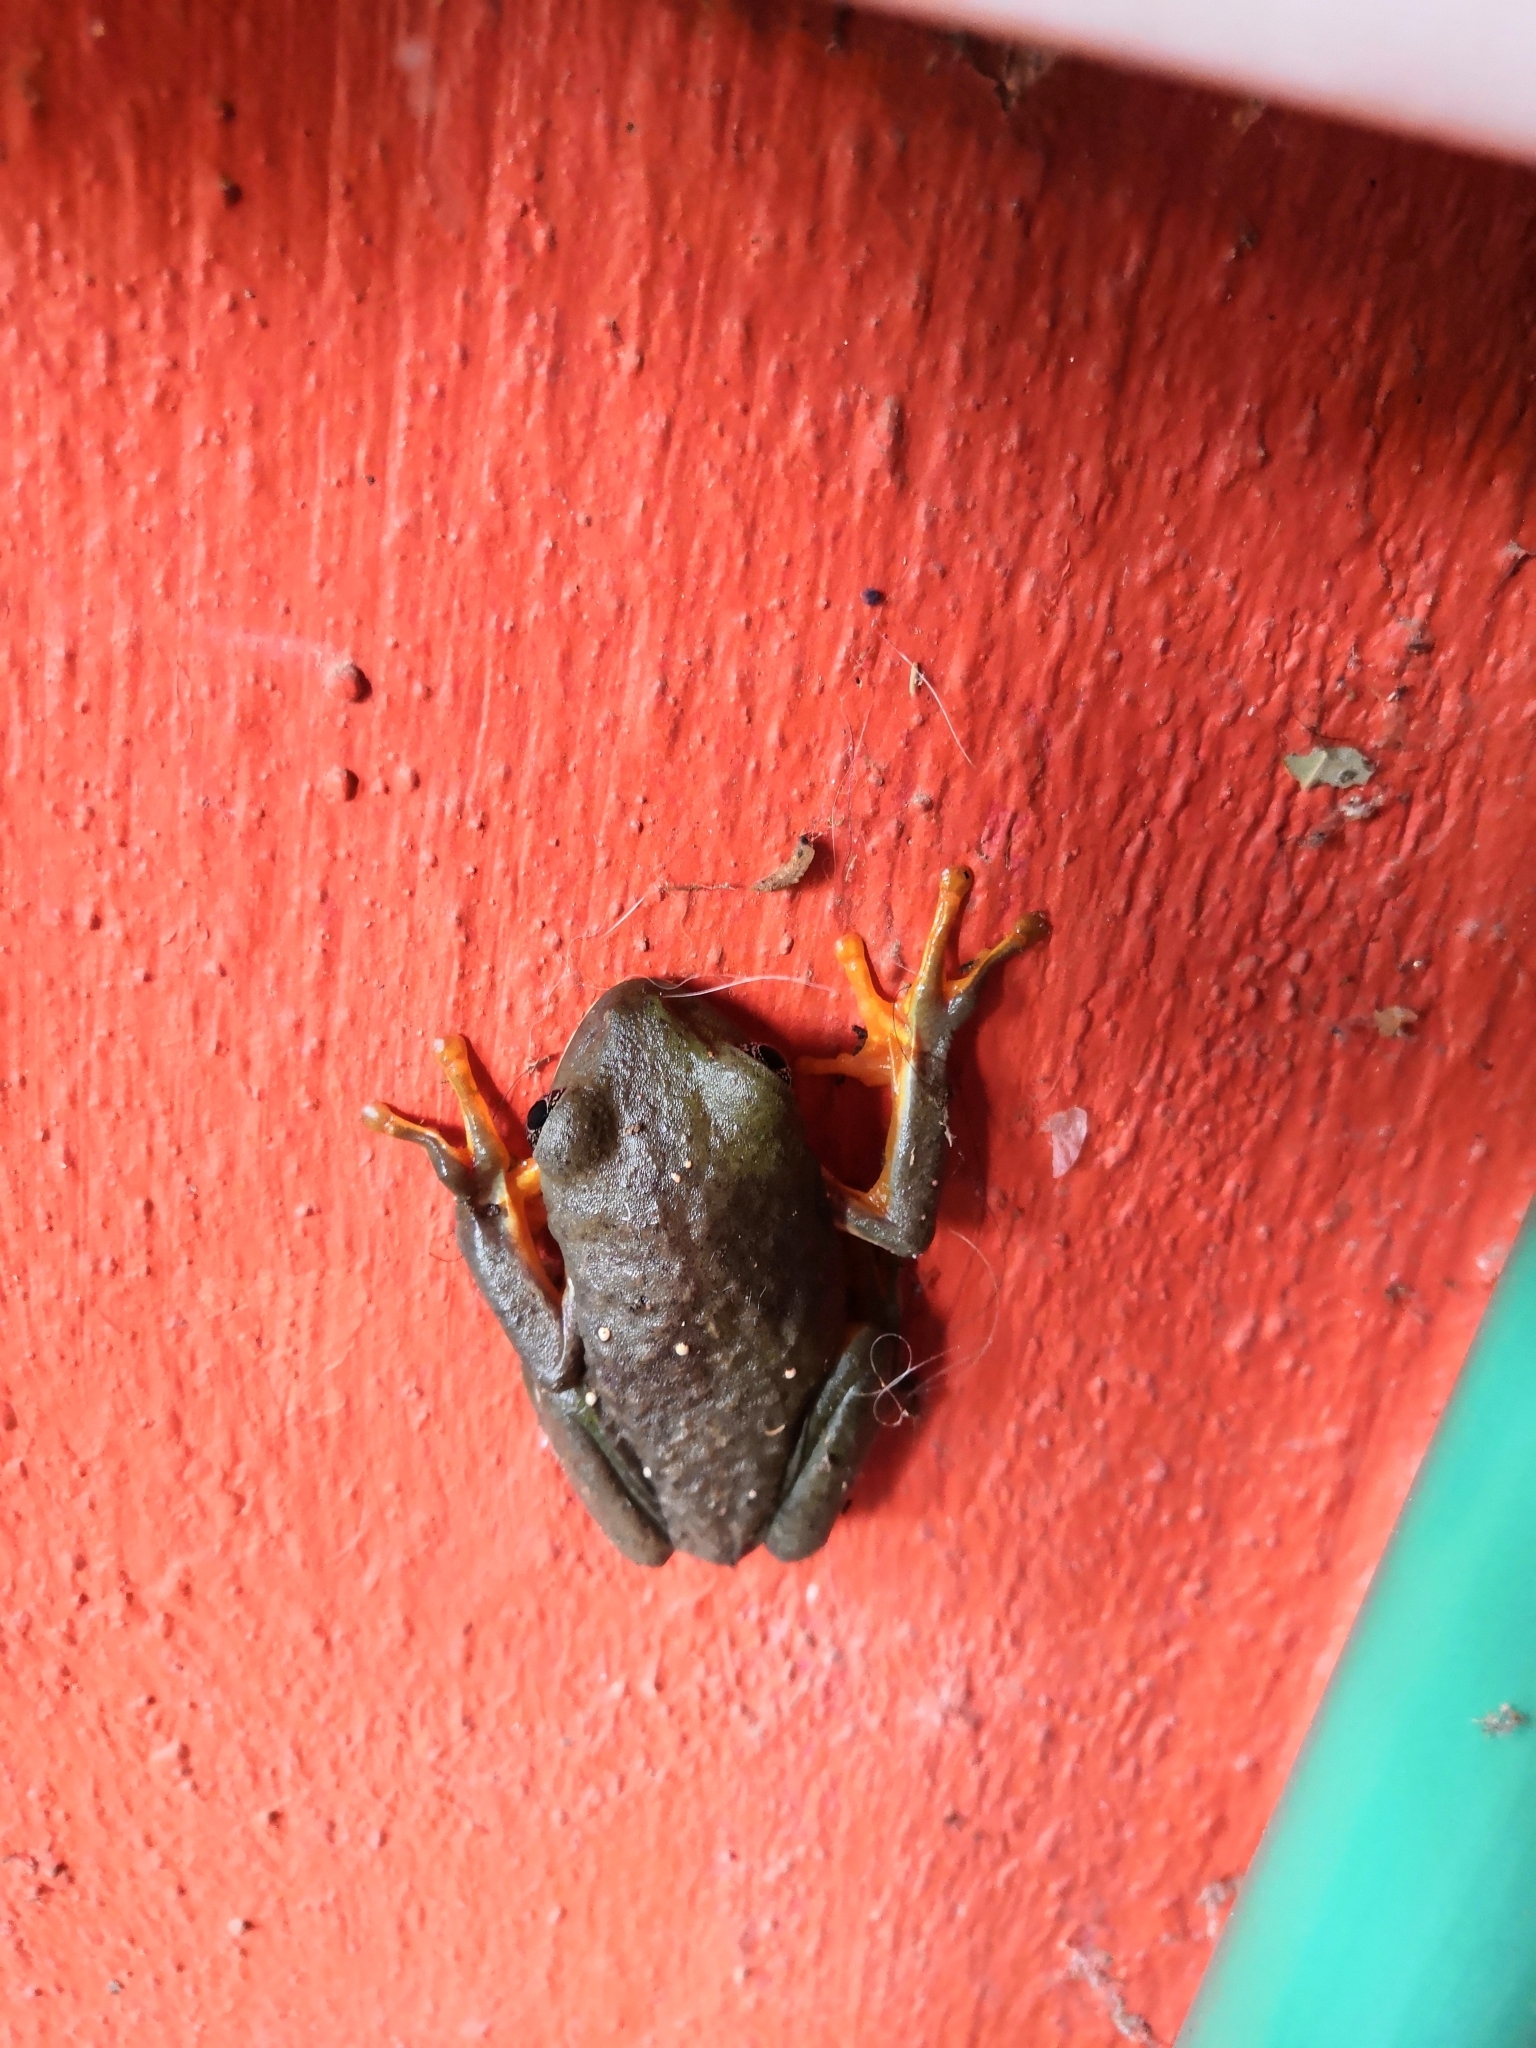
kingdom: Animalia
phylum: Chordata
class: Amphibia
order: Anura
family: Phyllomedusidae
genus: Agalychnis
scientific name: Agalychnis dacnicolor
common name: Mexican giant tree frog
